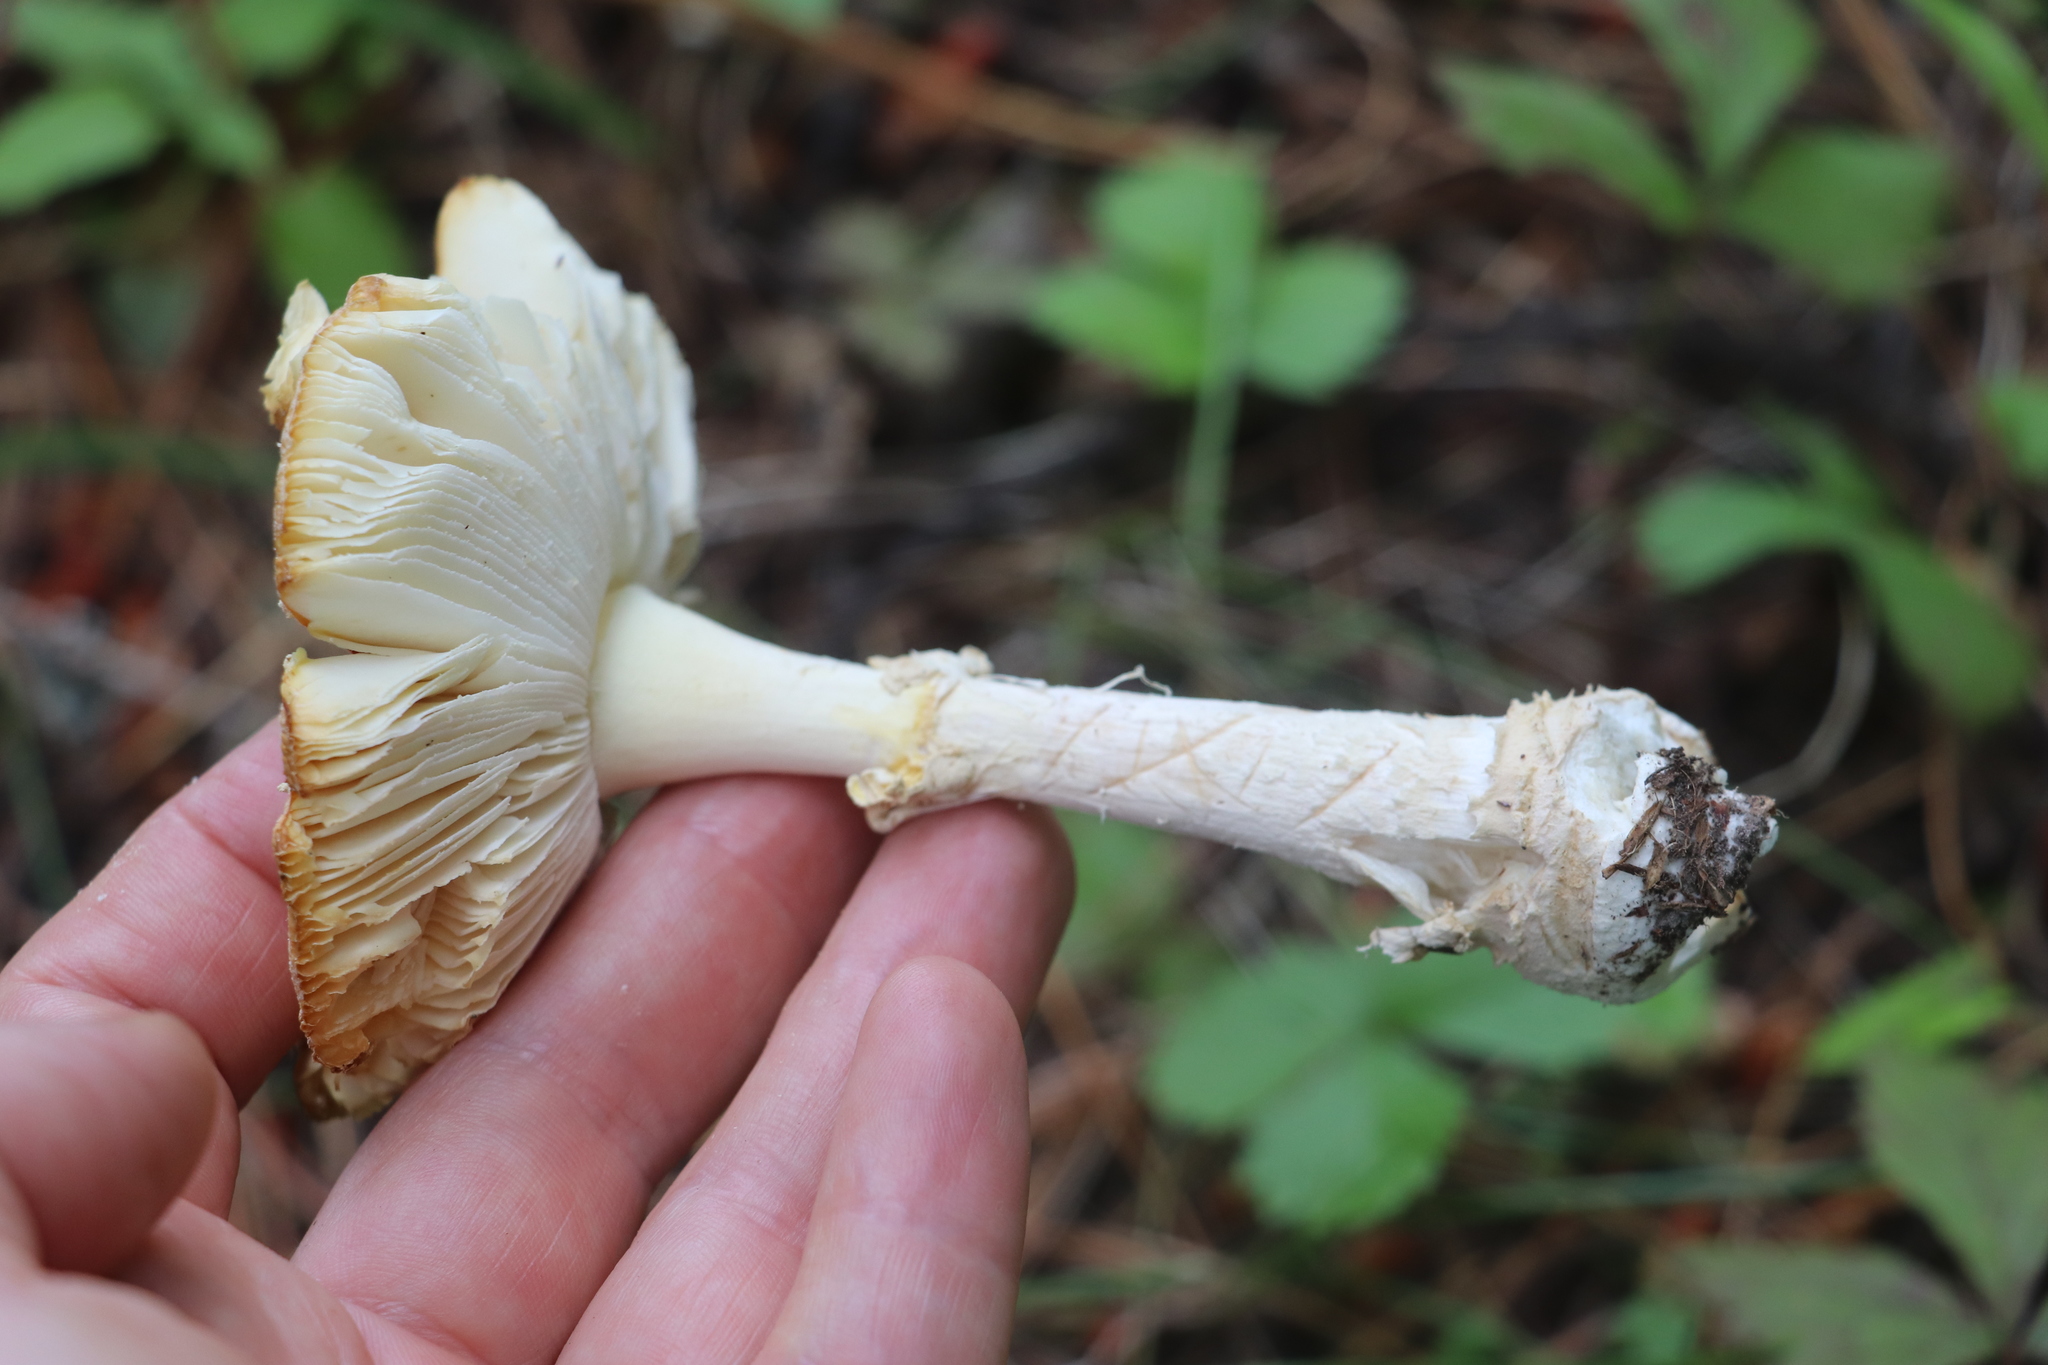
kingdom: Fungi
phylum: Basidiomycota
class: Agaricomycetes
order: Agaricales
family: Amanitaceae
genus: Amanita
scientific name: Amanita muscaria
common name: Fly agaric
